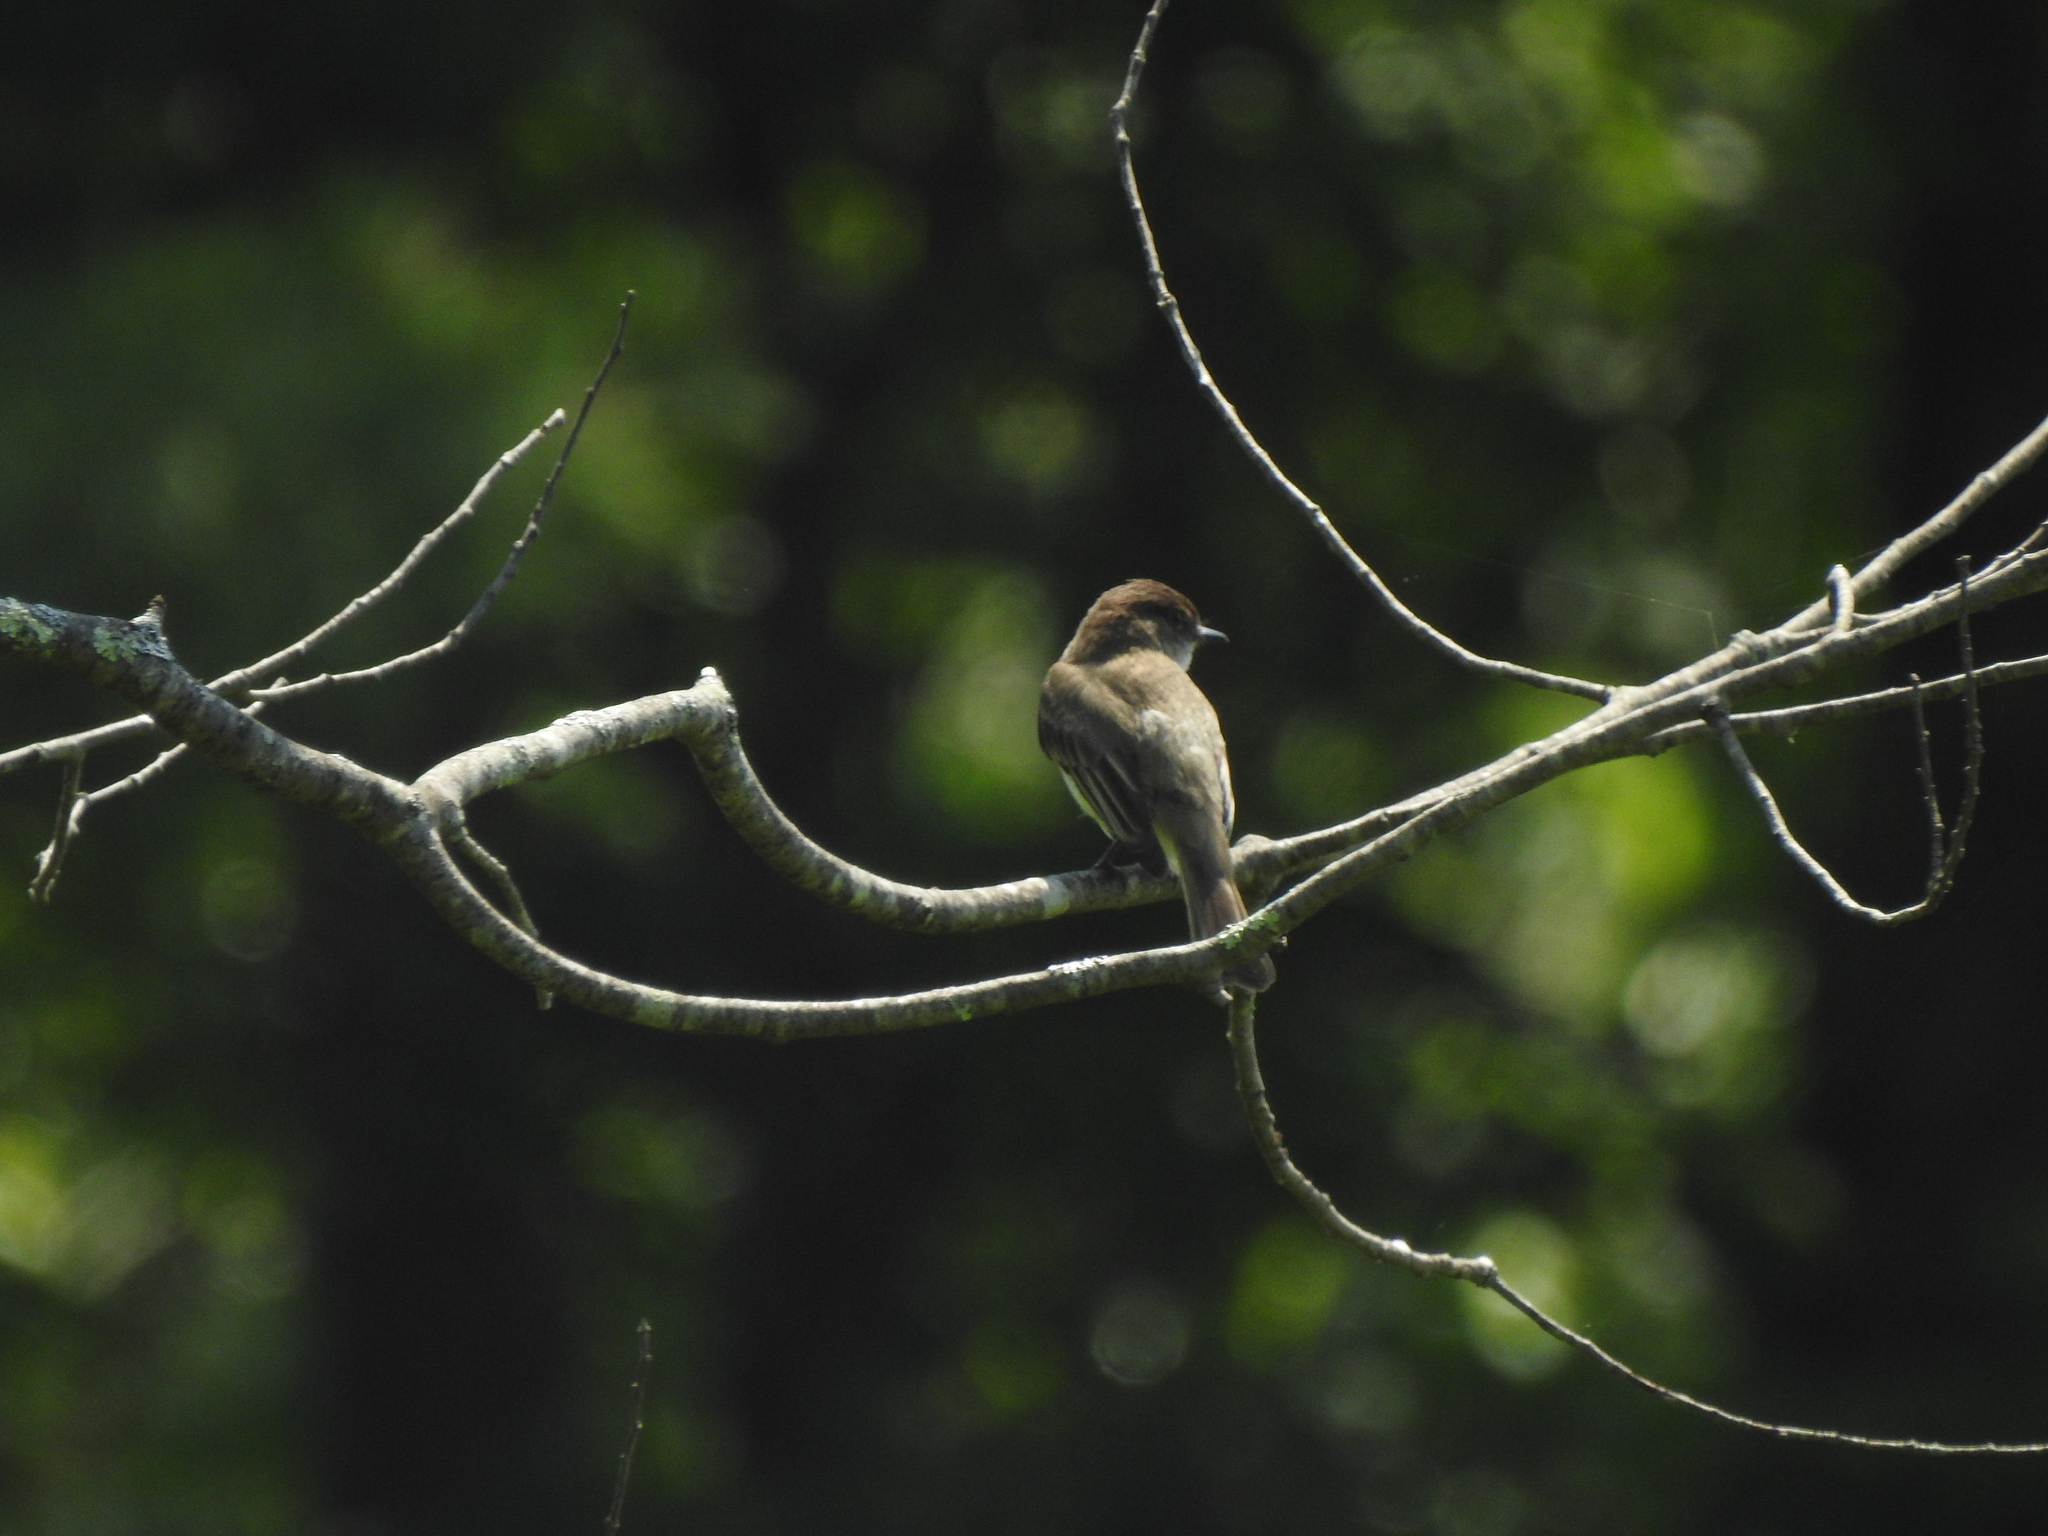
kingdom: Animalia
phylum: Chordata
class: Aves
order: Passeriformes
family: Tyrannidae
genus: Sayornis
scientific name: Sayornis phoebe
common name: Eastern phoebe
